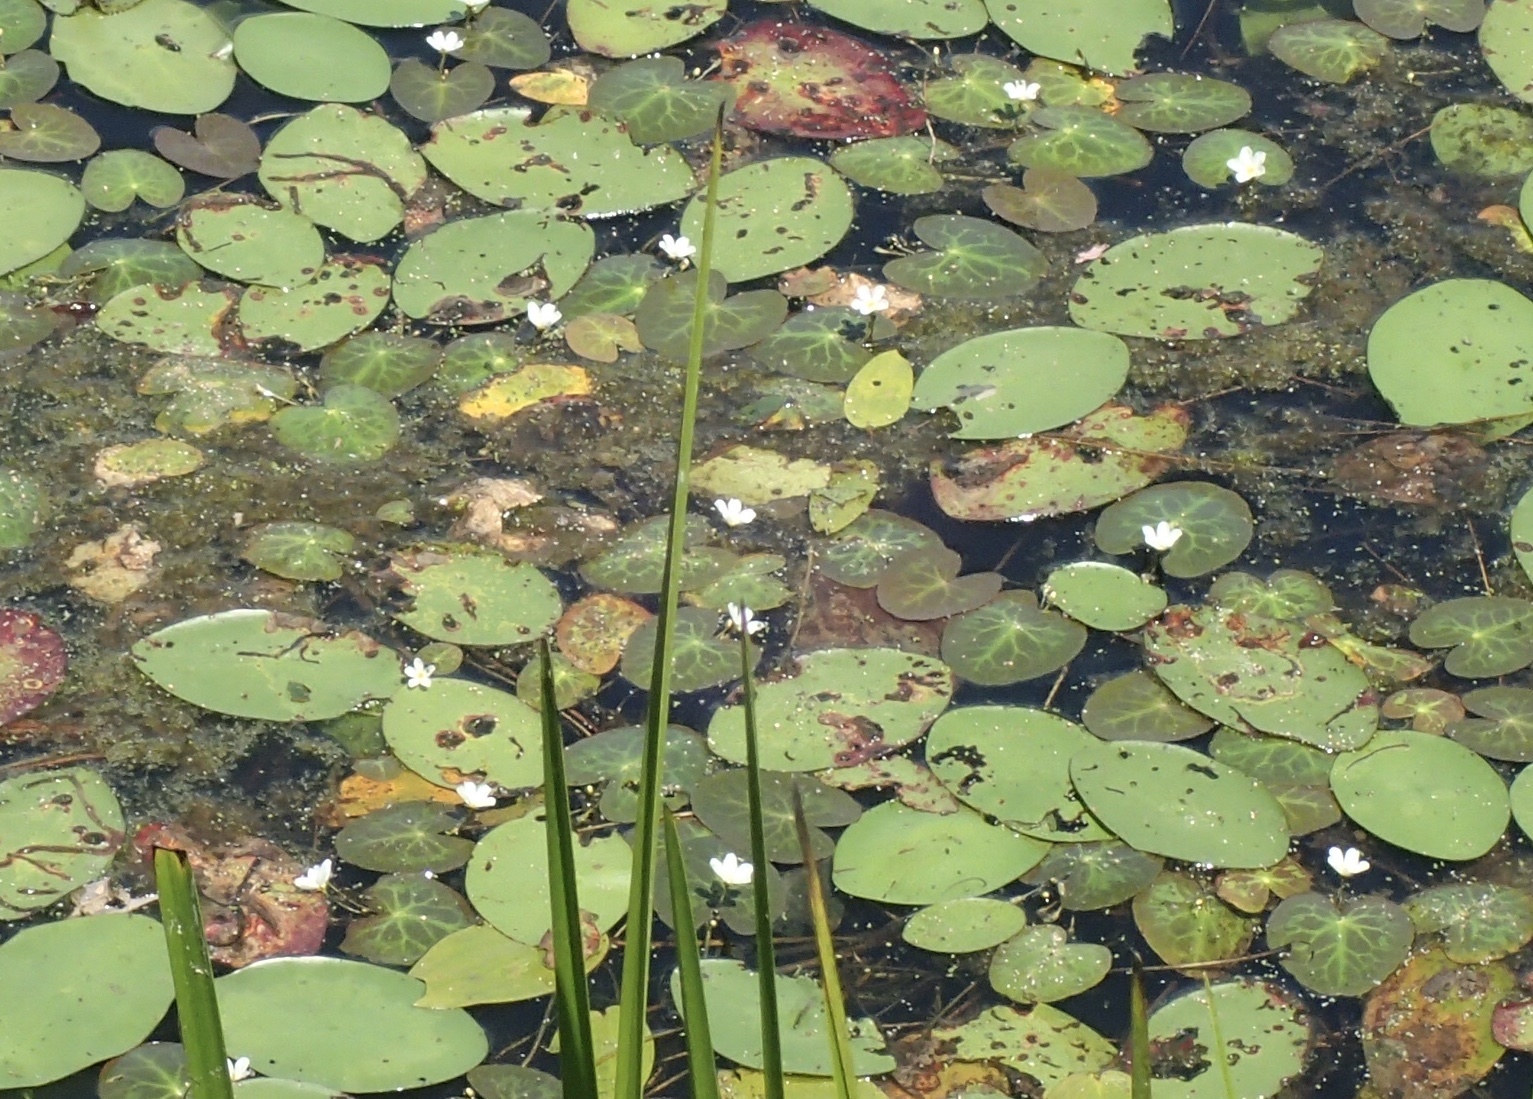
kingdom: Plantae
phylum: Tracheophyta
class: Magnoliopsida
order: Asterales
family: Menyanthaceae
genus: Nymphoides
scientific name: Nymphoides cordata
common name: Eight-angled floatingheart
